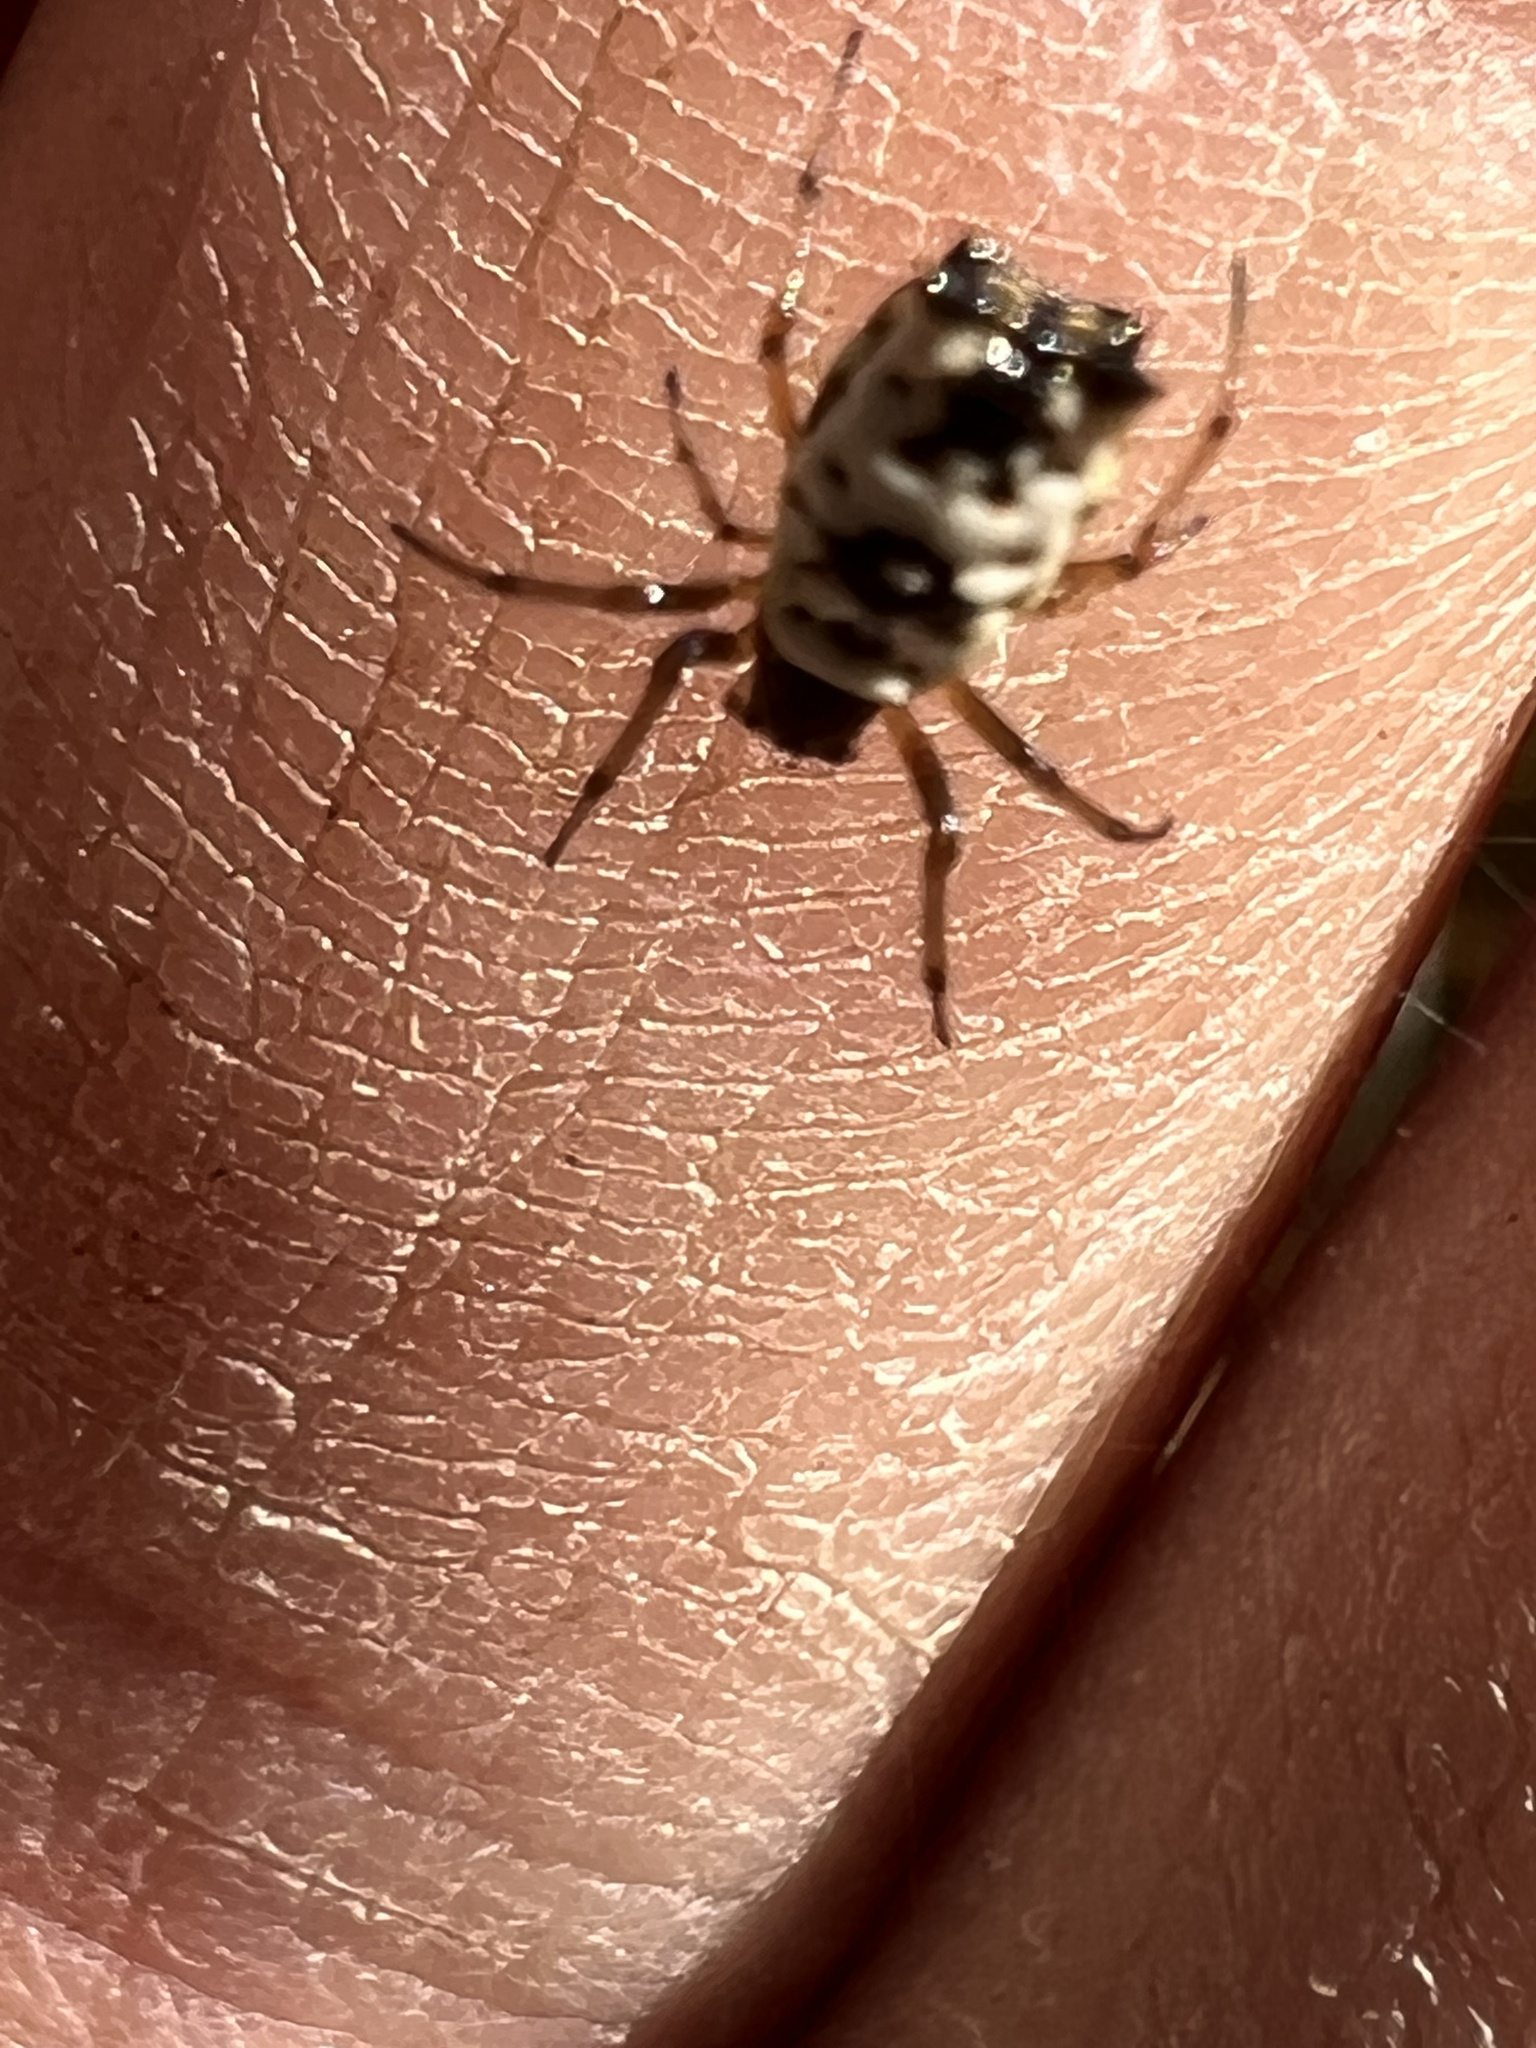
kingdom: Animalia
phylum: Arthropoda
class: Arachnida
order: Araneae
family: Araneidae
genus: Micrathena
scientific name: Micrathena mitrata
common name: Orb weavers
